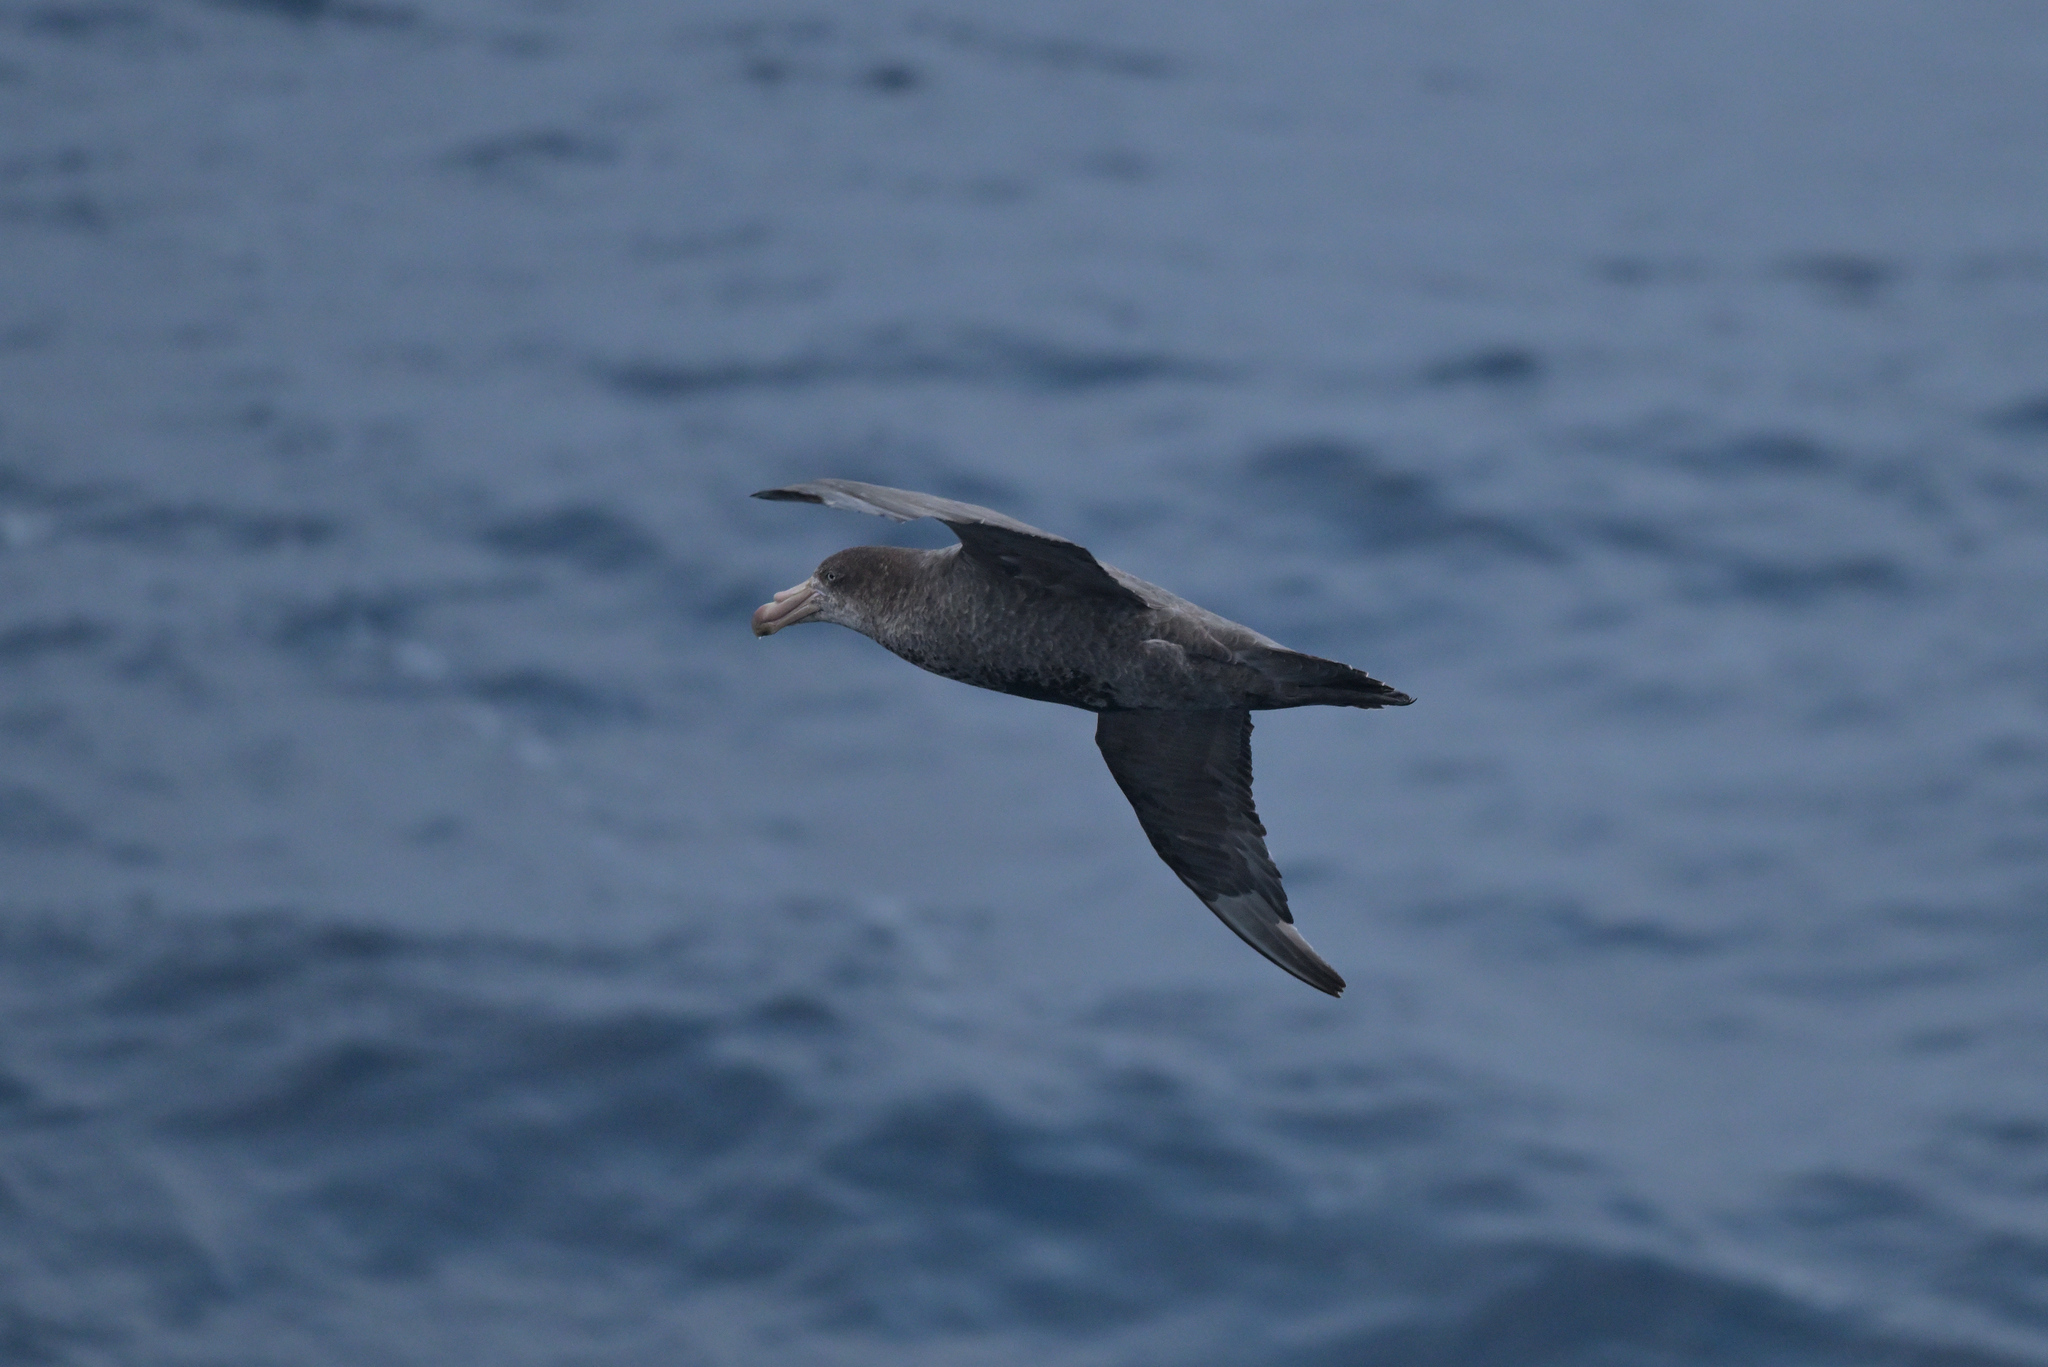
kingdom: Animalia
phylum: Chordata
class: Aves
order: Procellariiformes
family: Procellariidae
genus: Macronectes
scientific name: Macronectes halli
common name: Northern giant petrel
